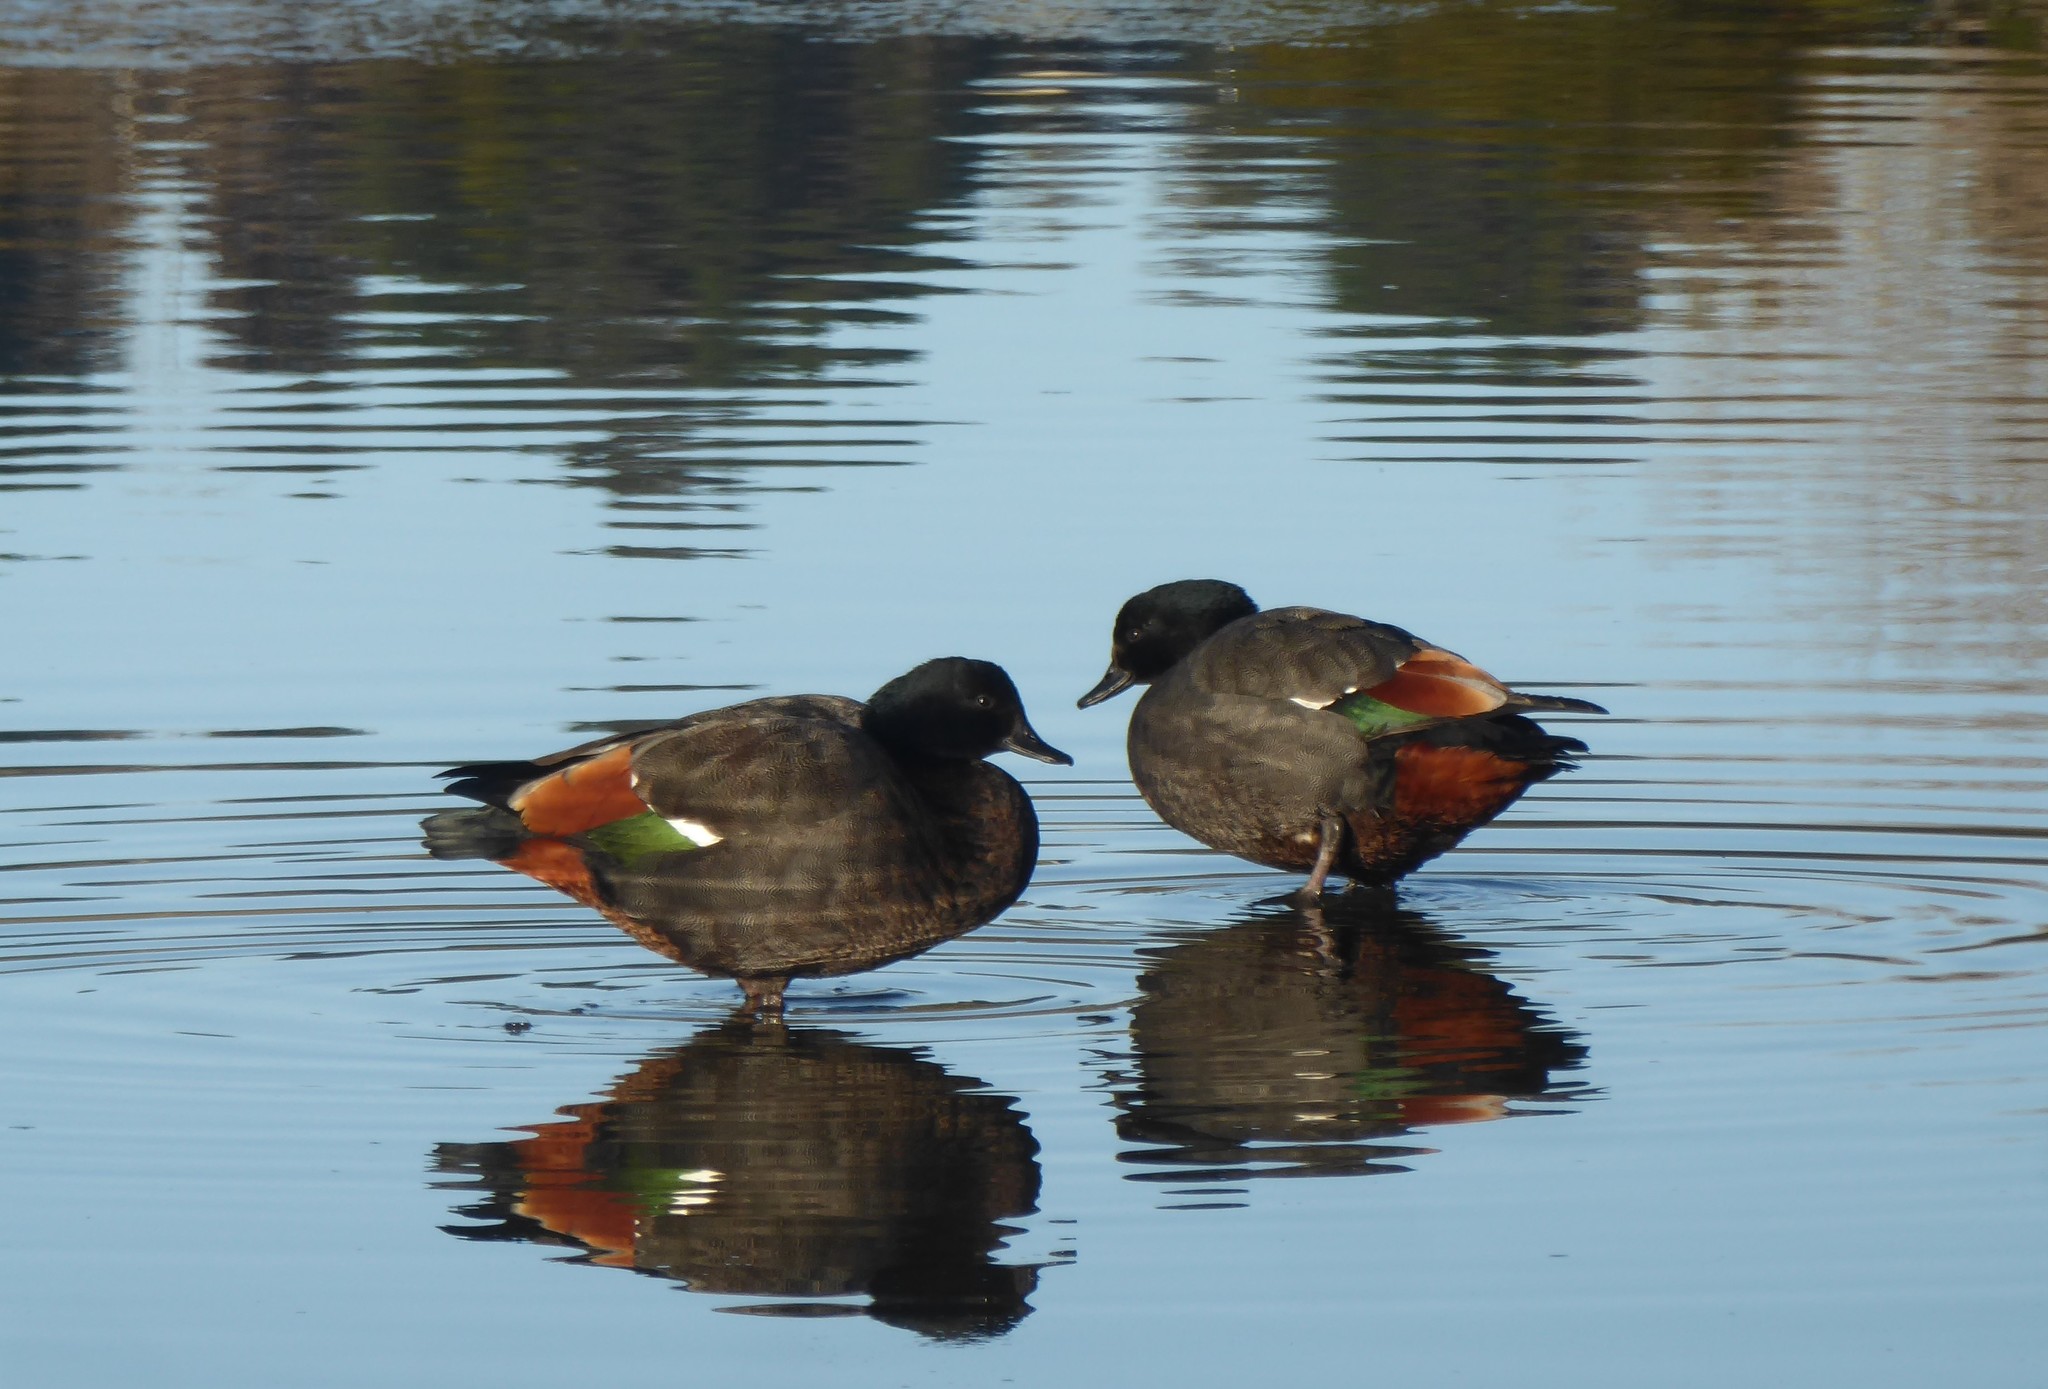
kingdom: Animalia
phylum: Chordata
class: Aves
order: Anseriformes
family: Anatidae
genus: Tadorna
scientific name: Tadorna variegata
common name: Paradise shelduck
